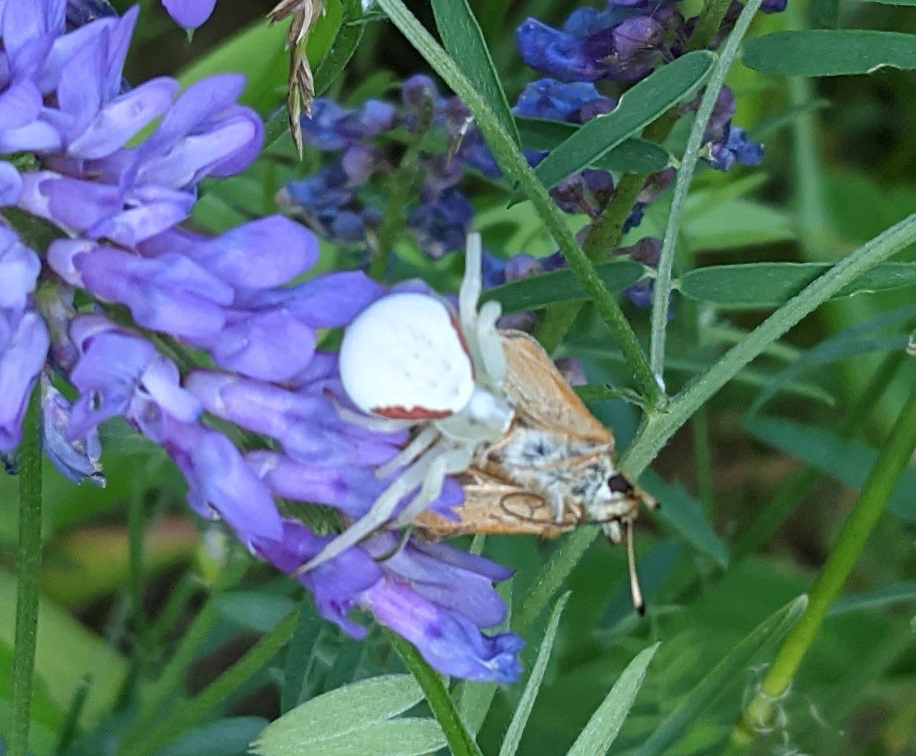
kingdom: Animalia
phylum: Arthropoda
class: Arachnida
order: Araneae
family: Thomisidae
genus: Misumena
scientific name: Misumena vatia
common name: Goldenrod crab spider
